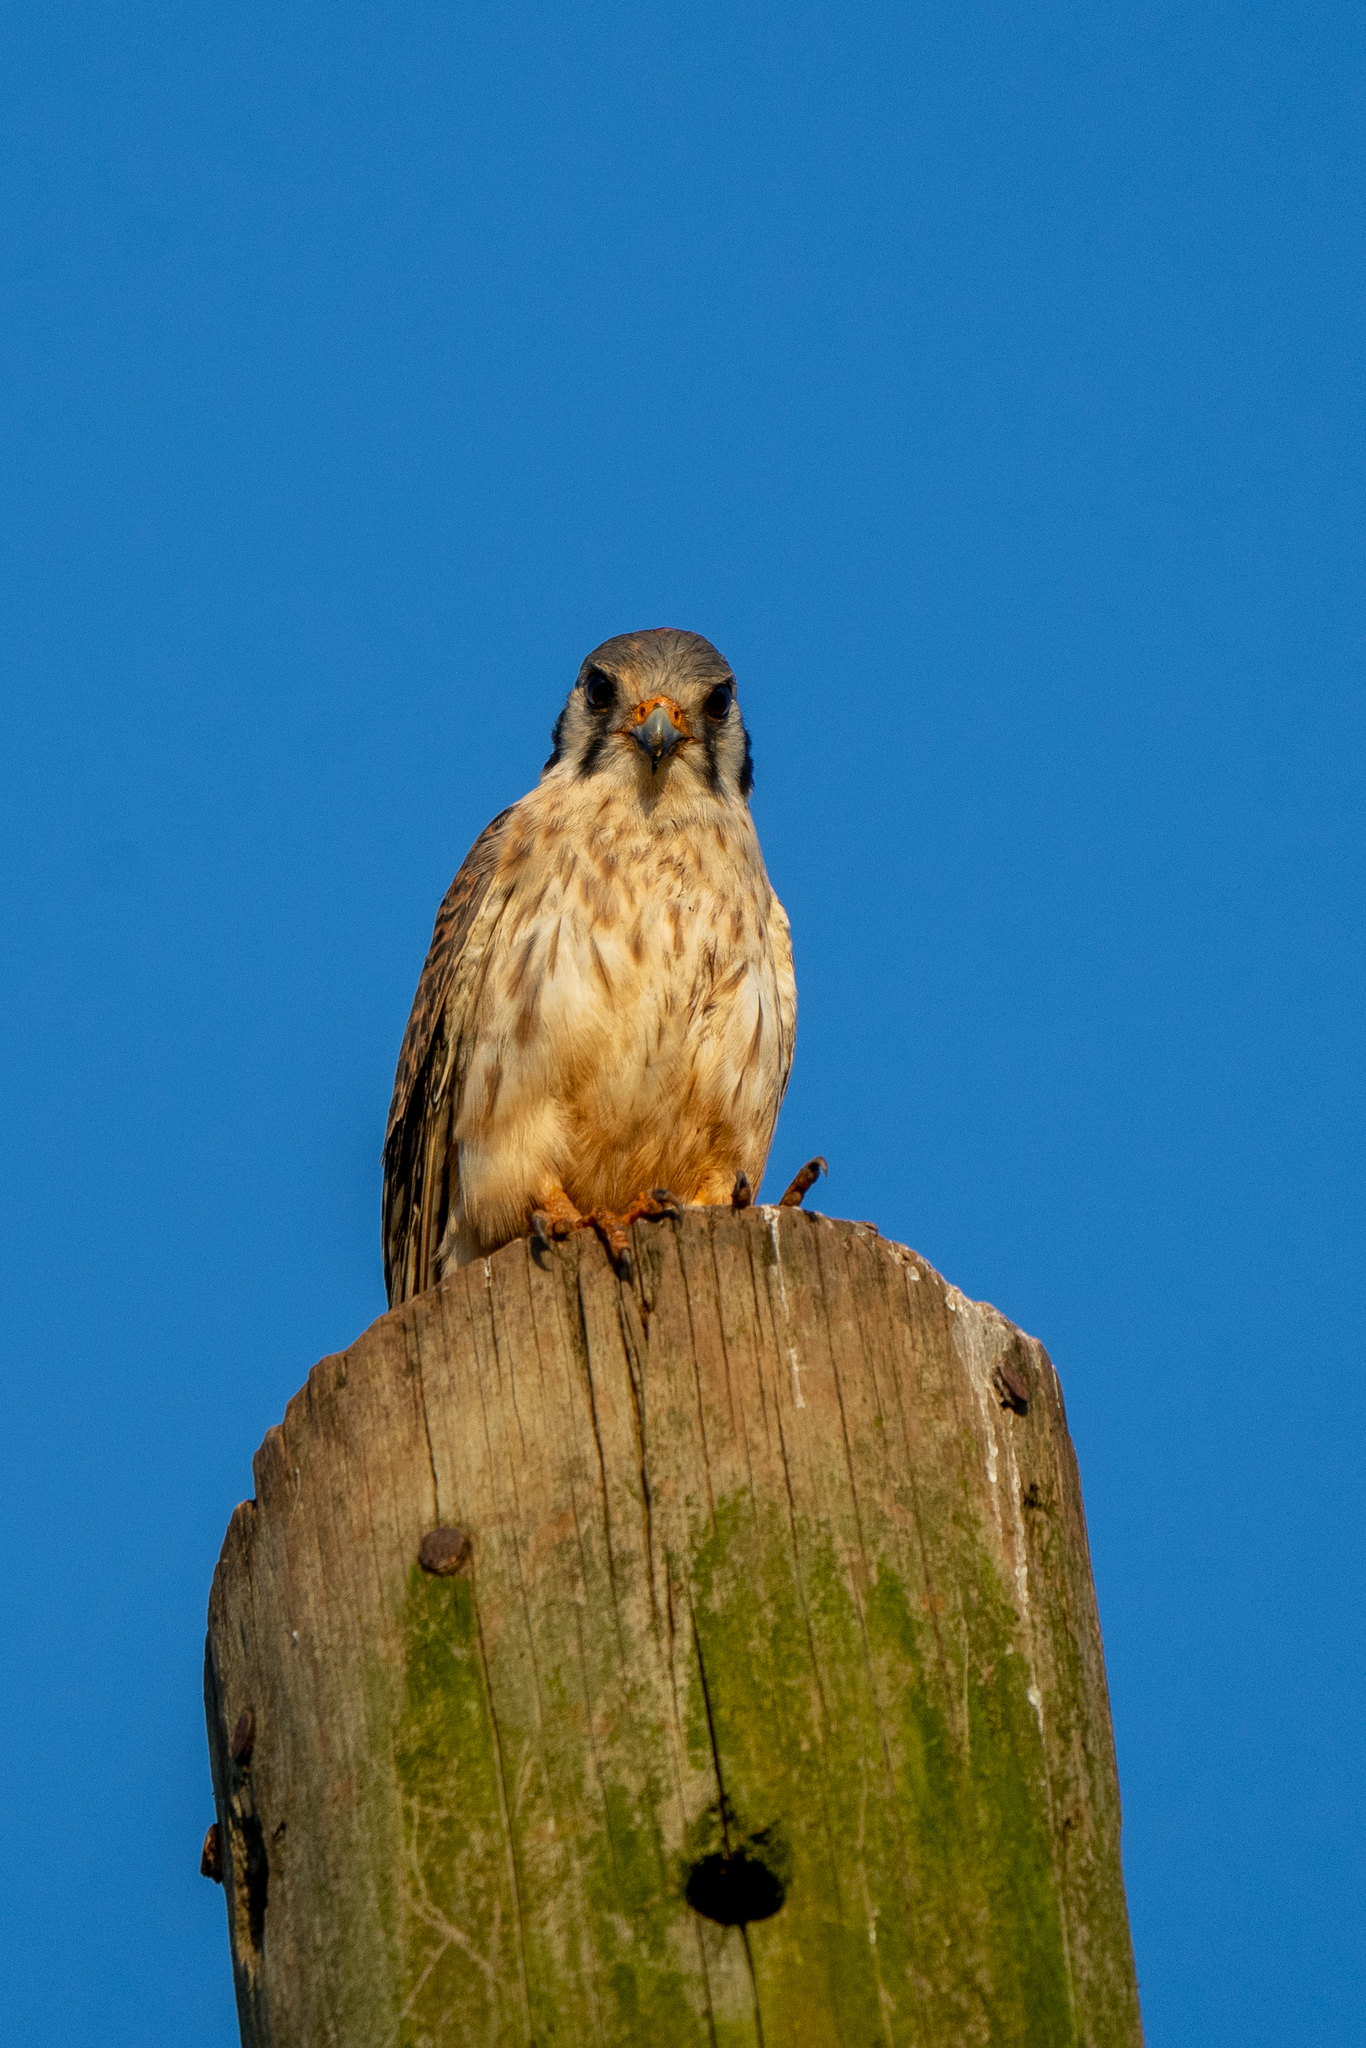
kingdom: Animalia
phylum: Chordata
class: Aves
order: Falconiformes
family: Falconidae
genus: Falco
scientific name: Falco sparverius
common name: American kestrel
